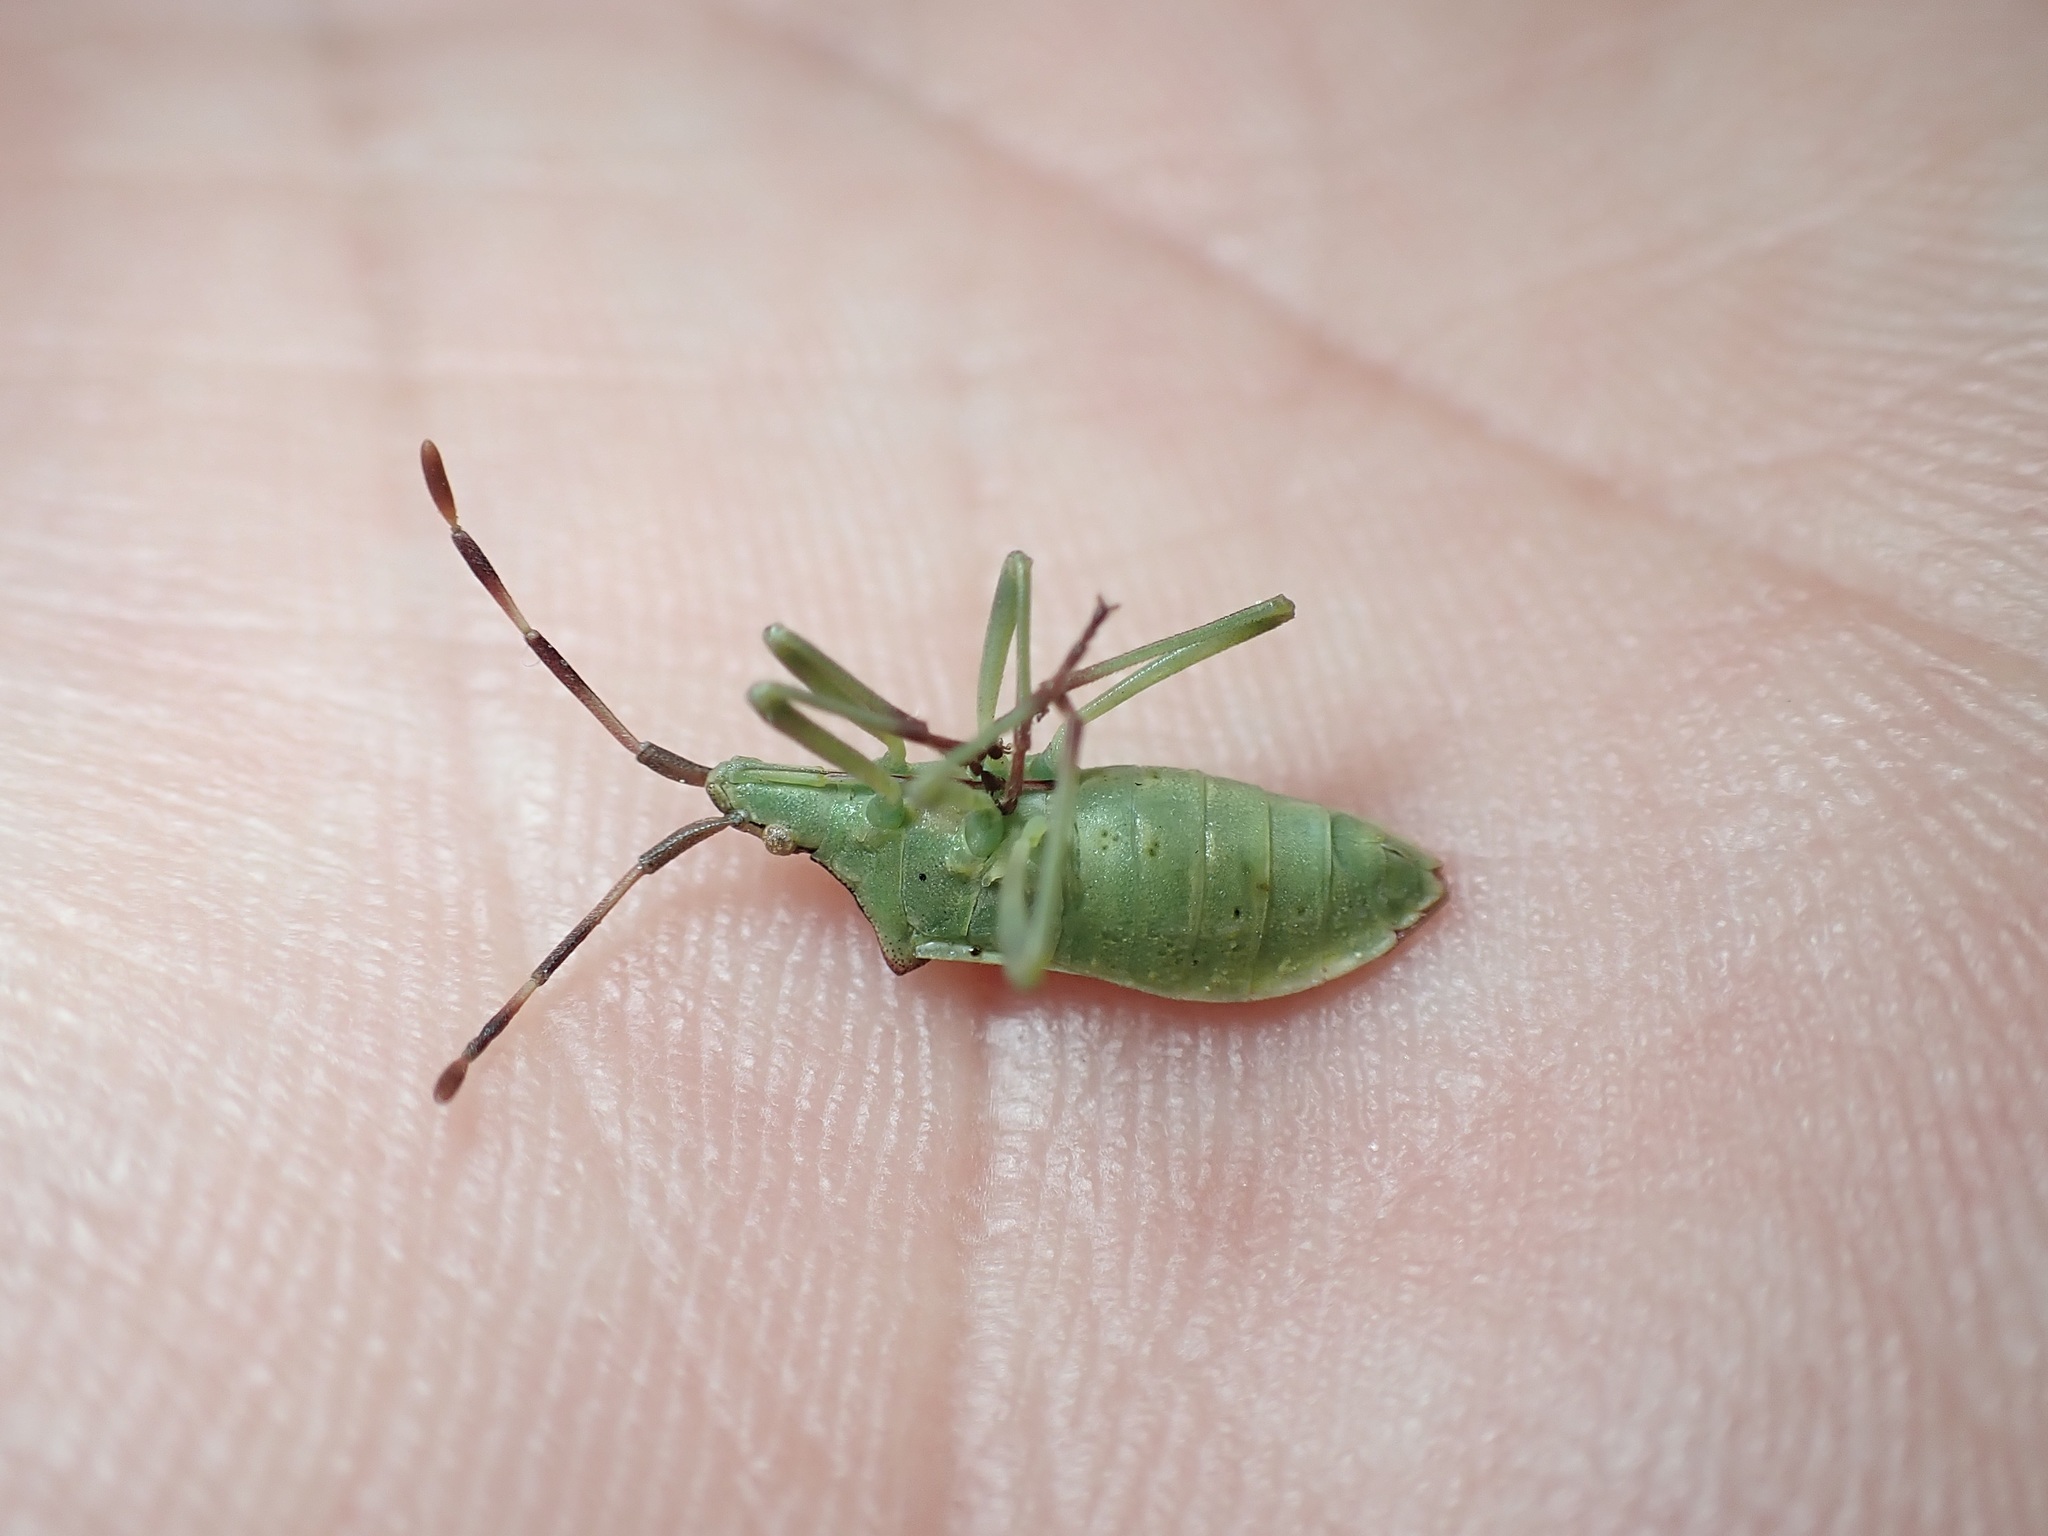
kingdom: Animalia
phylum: Arthropoda
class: Insecta
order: Hemiptera
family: Coreidae
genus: Gonocerus
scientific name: Gonocerus juniperi
